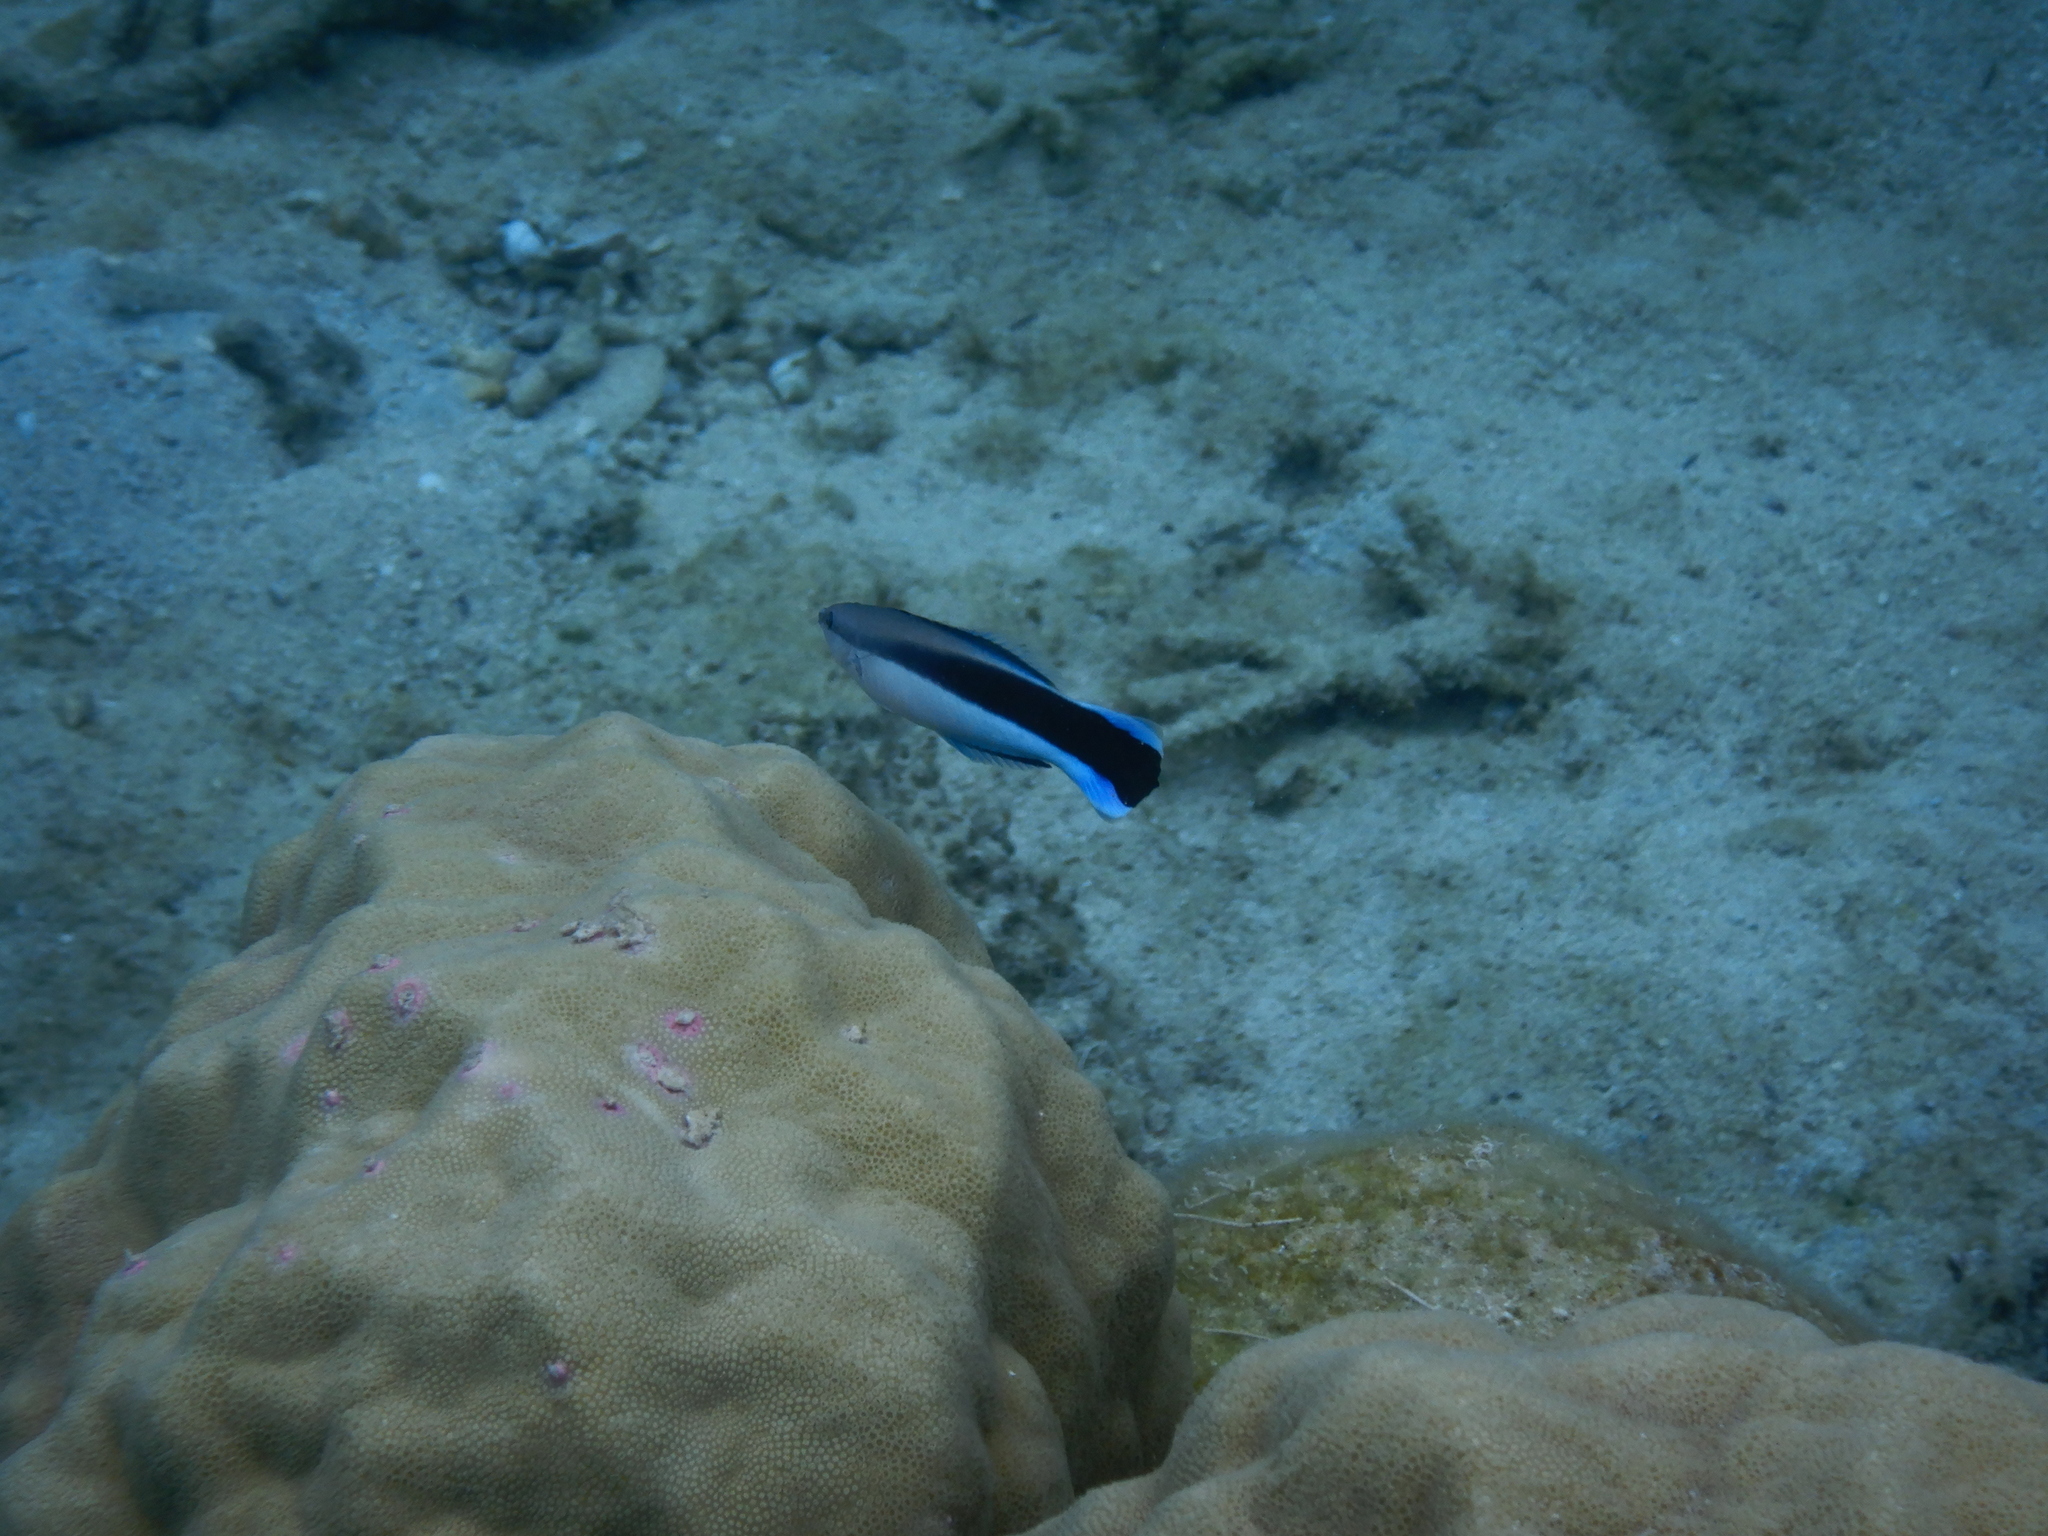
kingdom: Animalia
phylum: Chordata
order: Perciformes
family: Labridae
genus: Labroides
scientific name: Labroides dimidiatus
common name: Blue diesel wrasse
